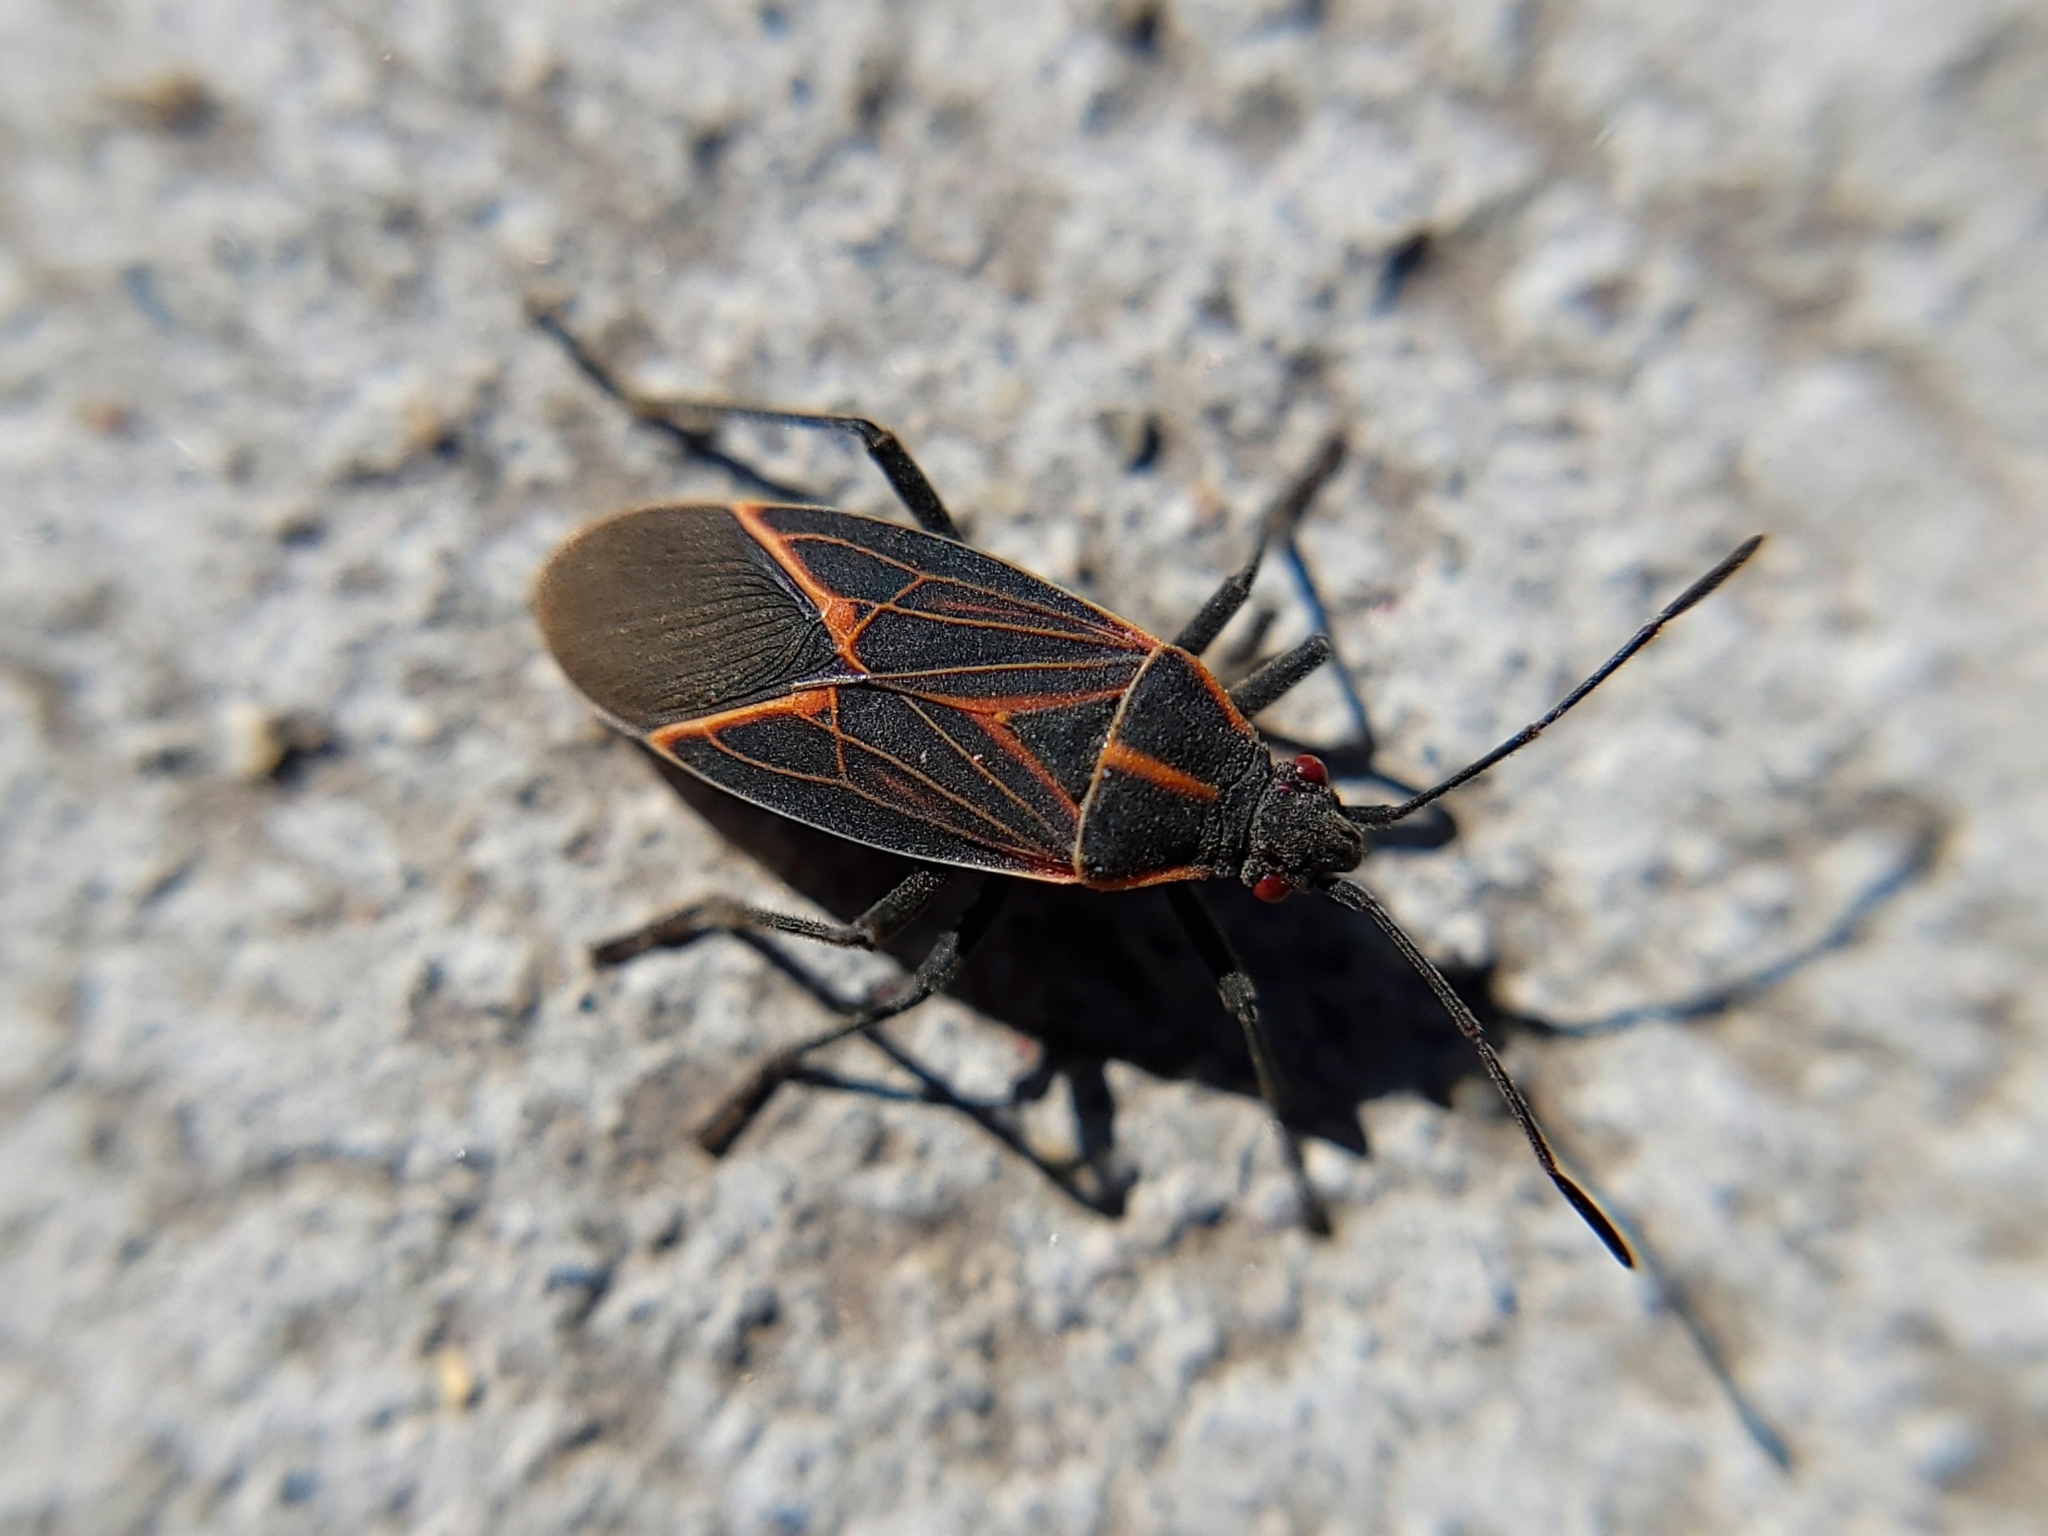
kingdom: Animalia
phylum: Arthropoda
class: Insecta
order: Hemiptera
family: Rhopalidae
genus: Boisea
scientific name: Boisea rubrolineata
